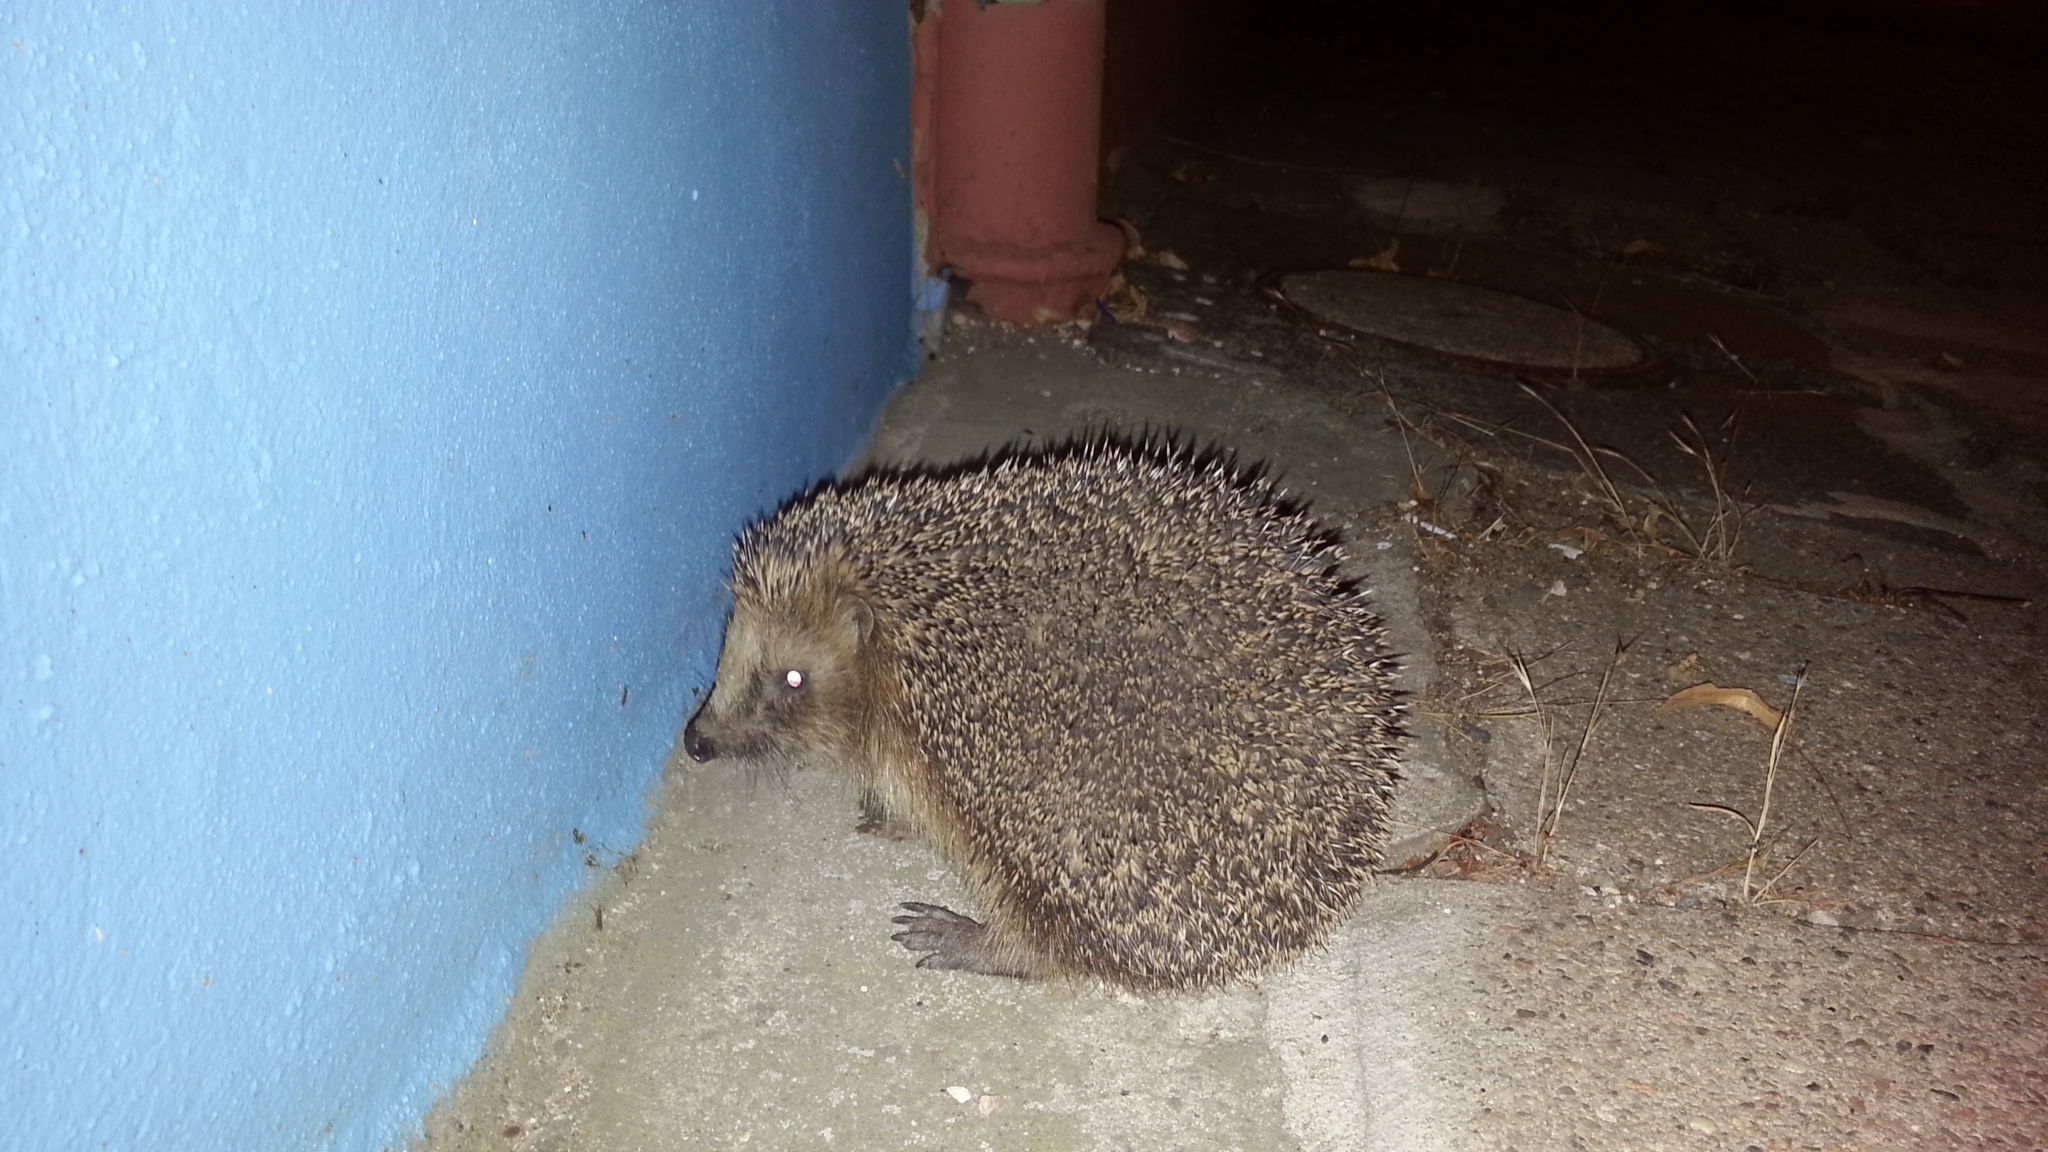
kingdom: Animalia
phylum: Chordata
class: Mammalia
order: Erinaceomorpha
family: Erinaceidae
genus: Erinaceus
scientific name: Erinaceus europaeus
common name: West european hedgehog
